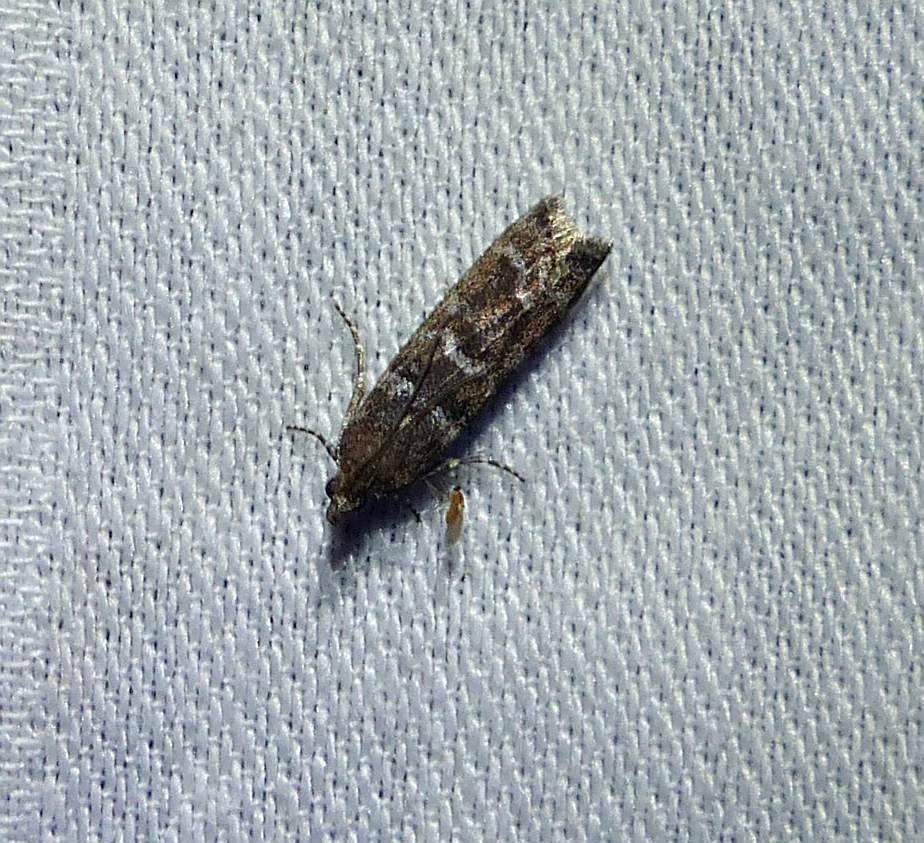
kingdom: Animalia
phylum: Arthropoda
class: Insecta
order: Lepidoptera
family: Pyralidae
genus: Ortholepis
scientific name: Ortholepis pasadamia
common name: Striped birch pyralid moth
